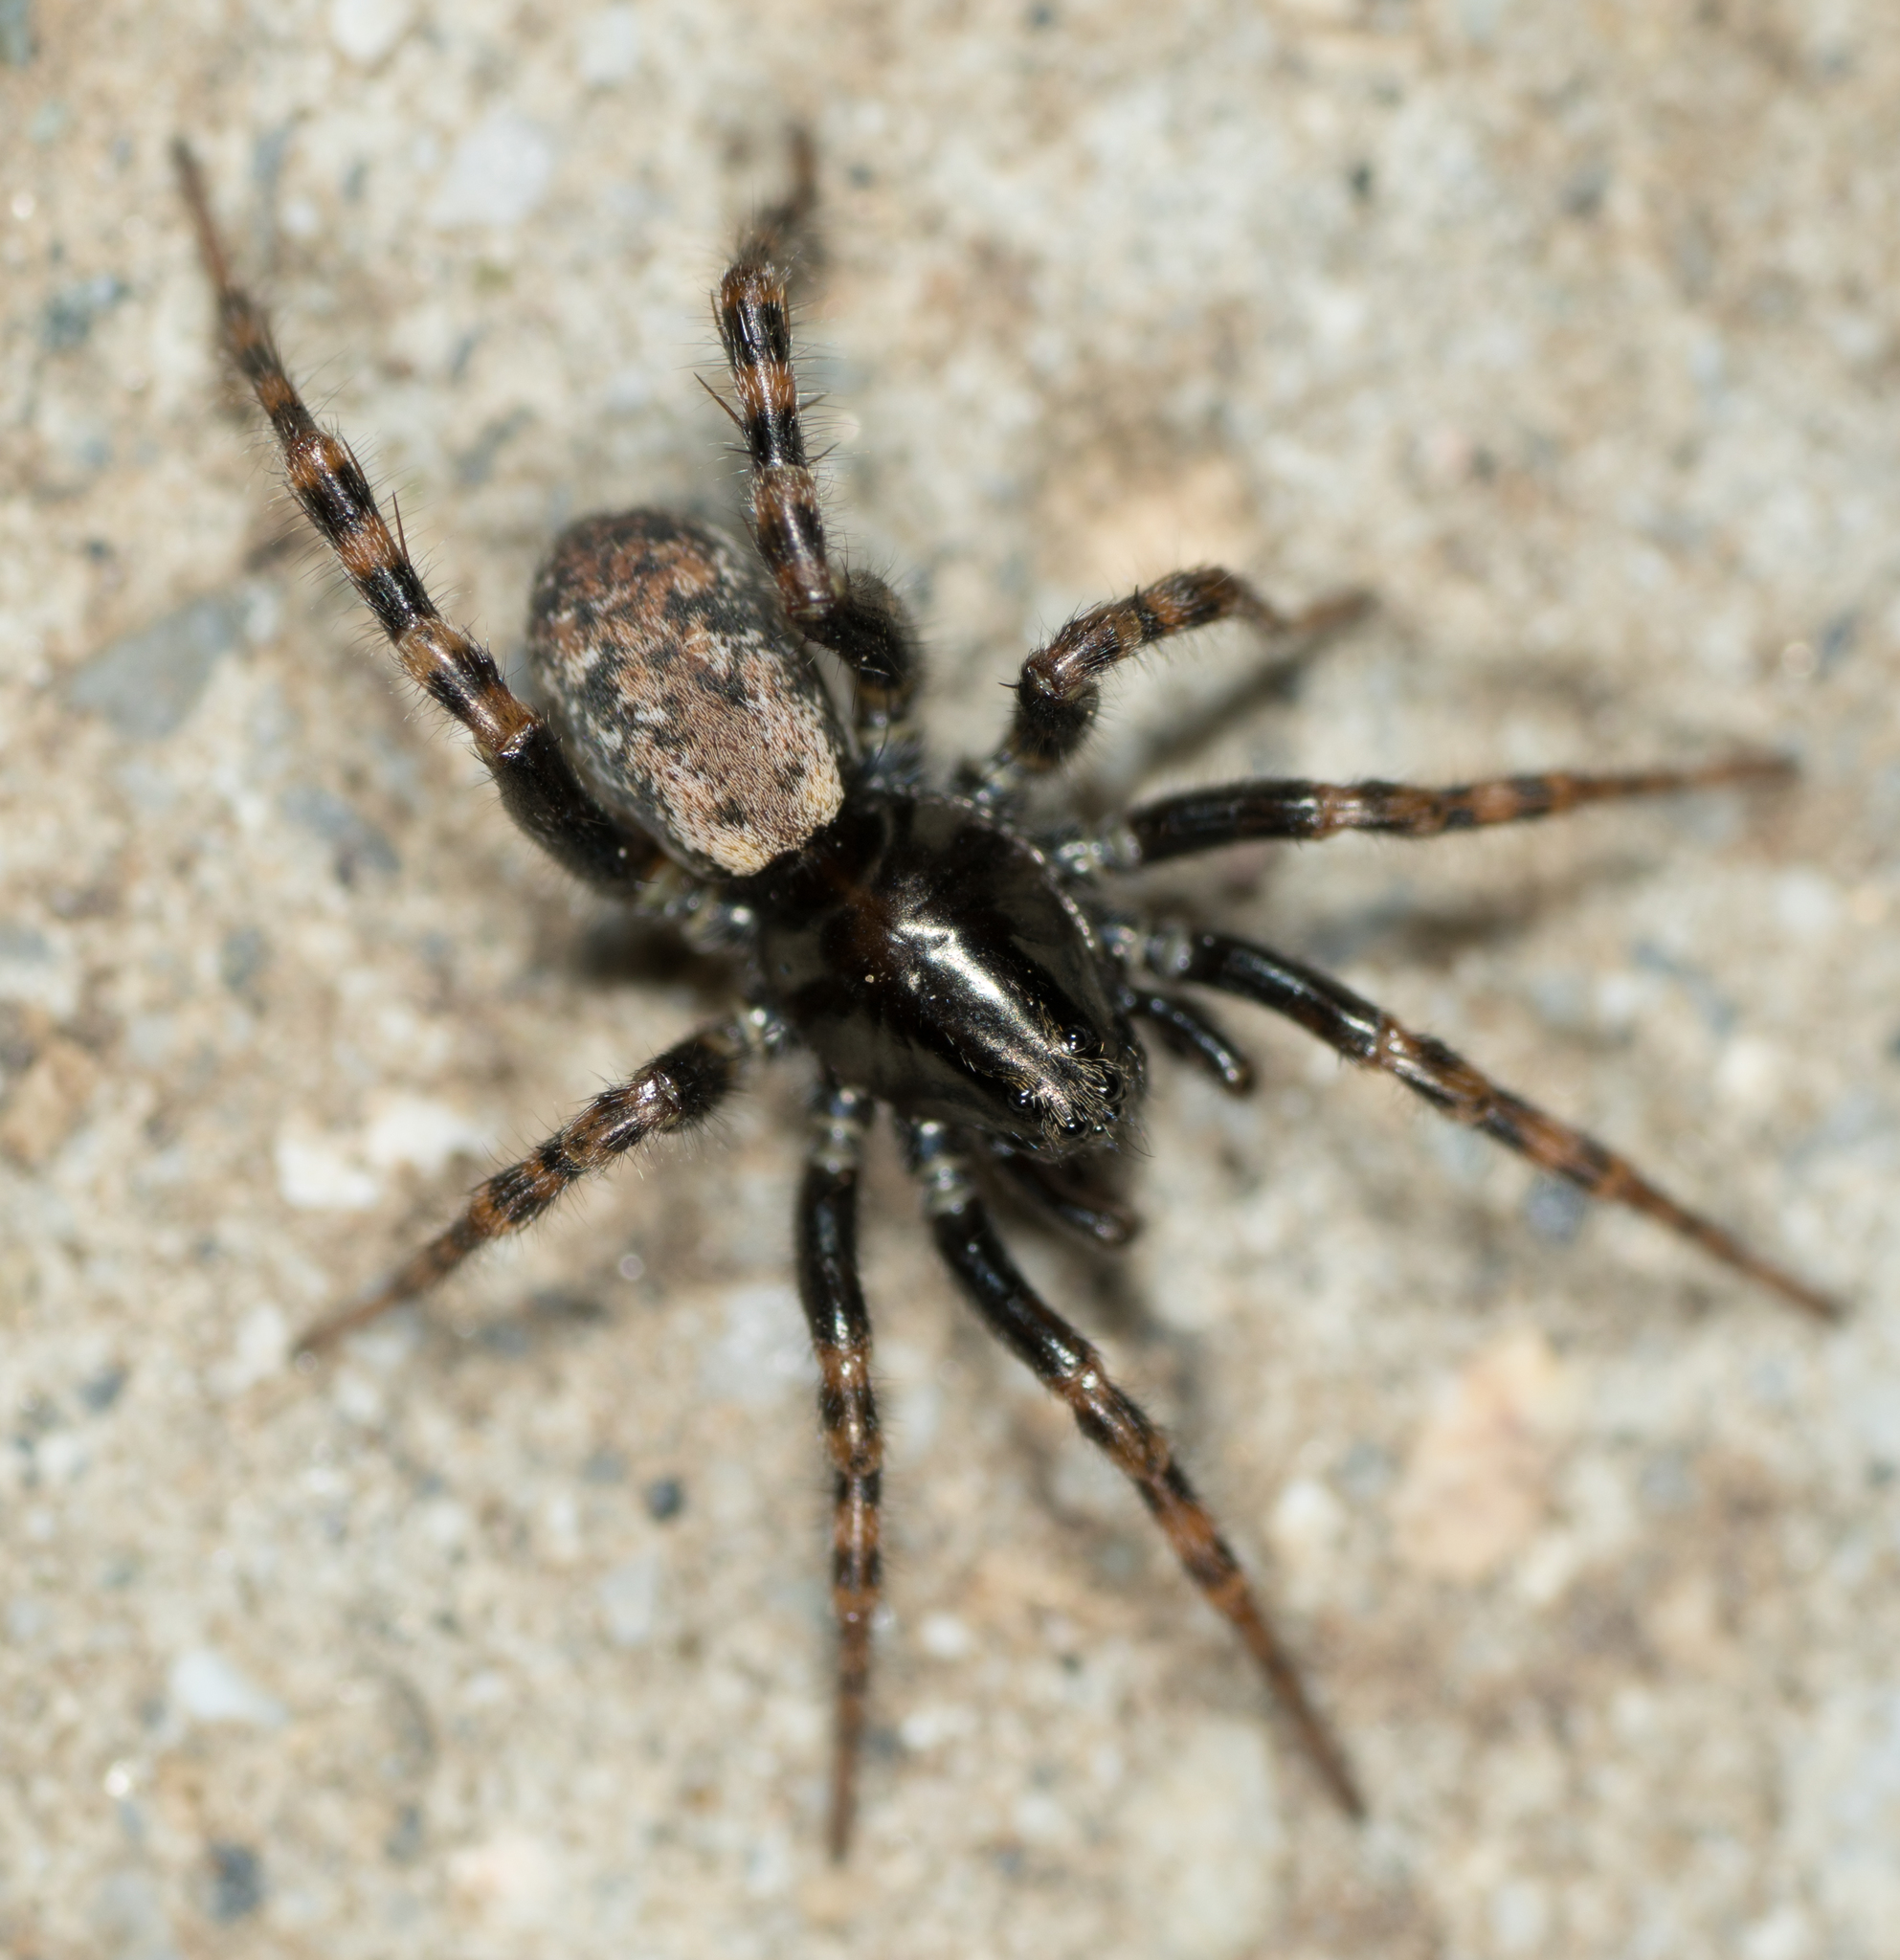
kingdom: Animalia
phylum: Arthropoda
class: Arachnida
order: Araneae
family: Lycosidae
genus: Allocosa
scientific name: Allocosa subparva
